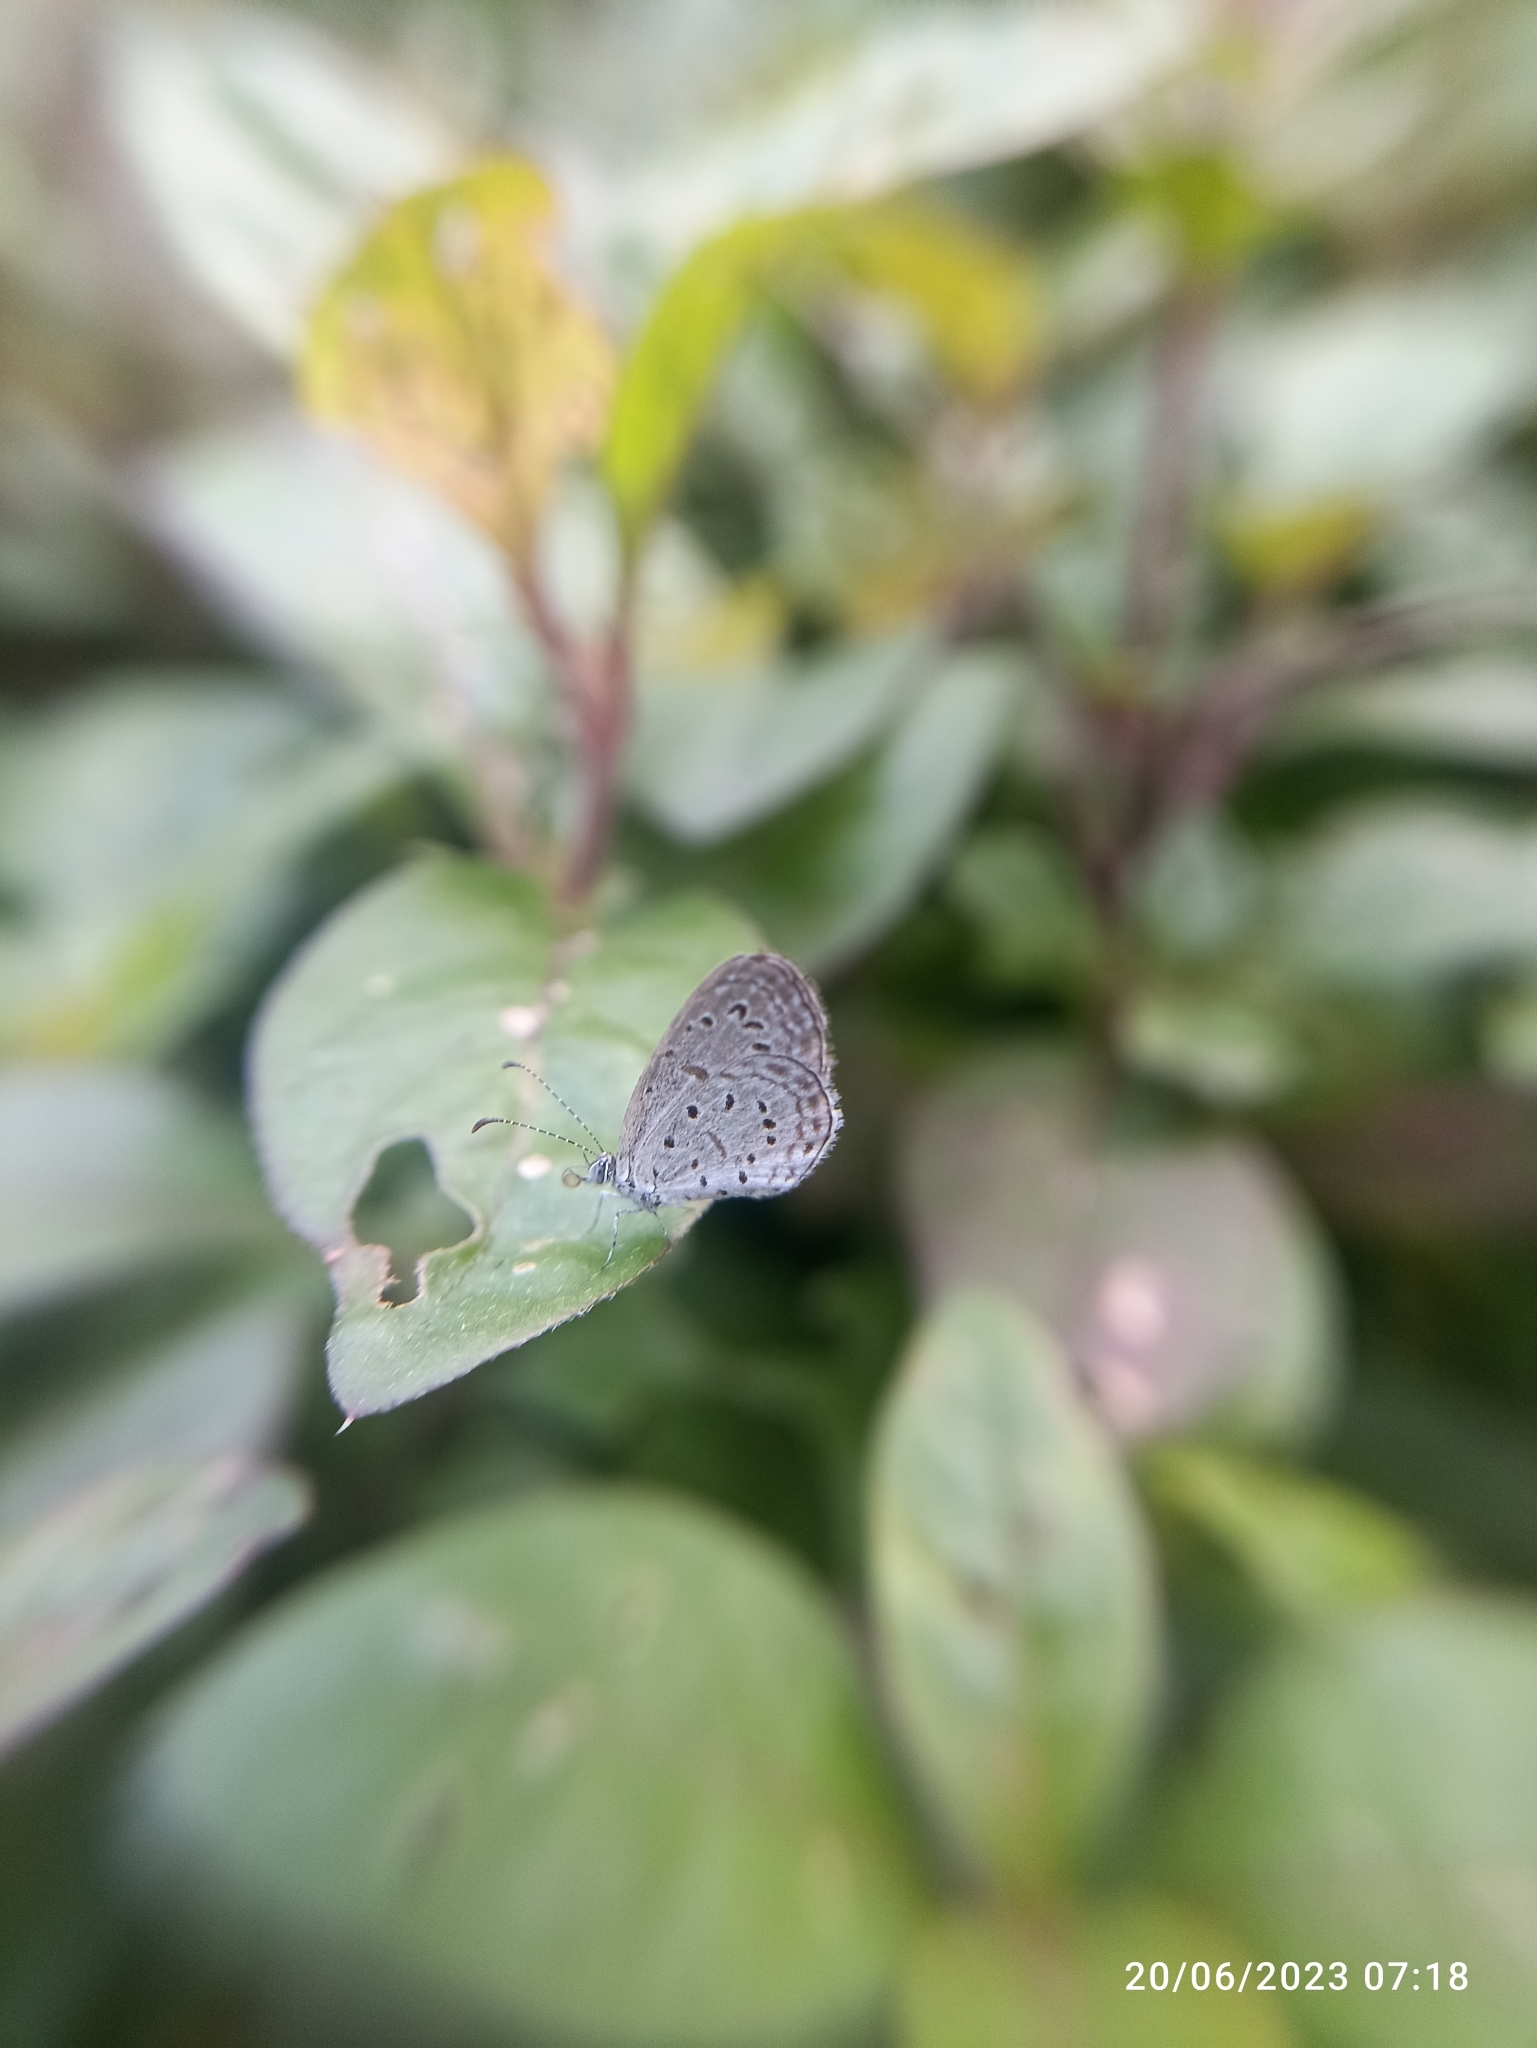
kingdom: Animalia
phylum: Arthropoda
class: Insecta
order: Lepidoptera
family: Lycaenidae
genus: Zizula
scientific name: Zizula hylax
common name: Gaika blue
